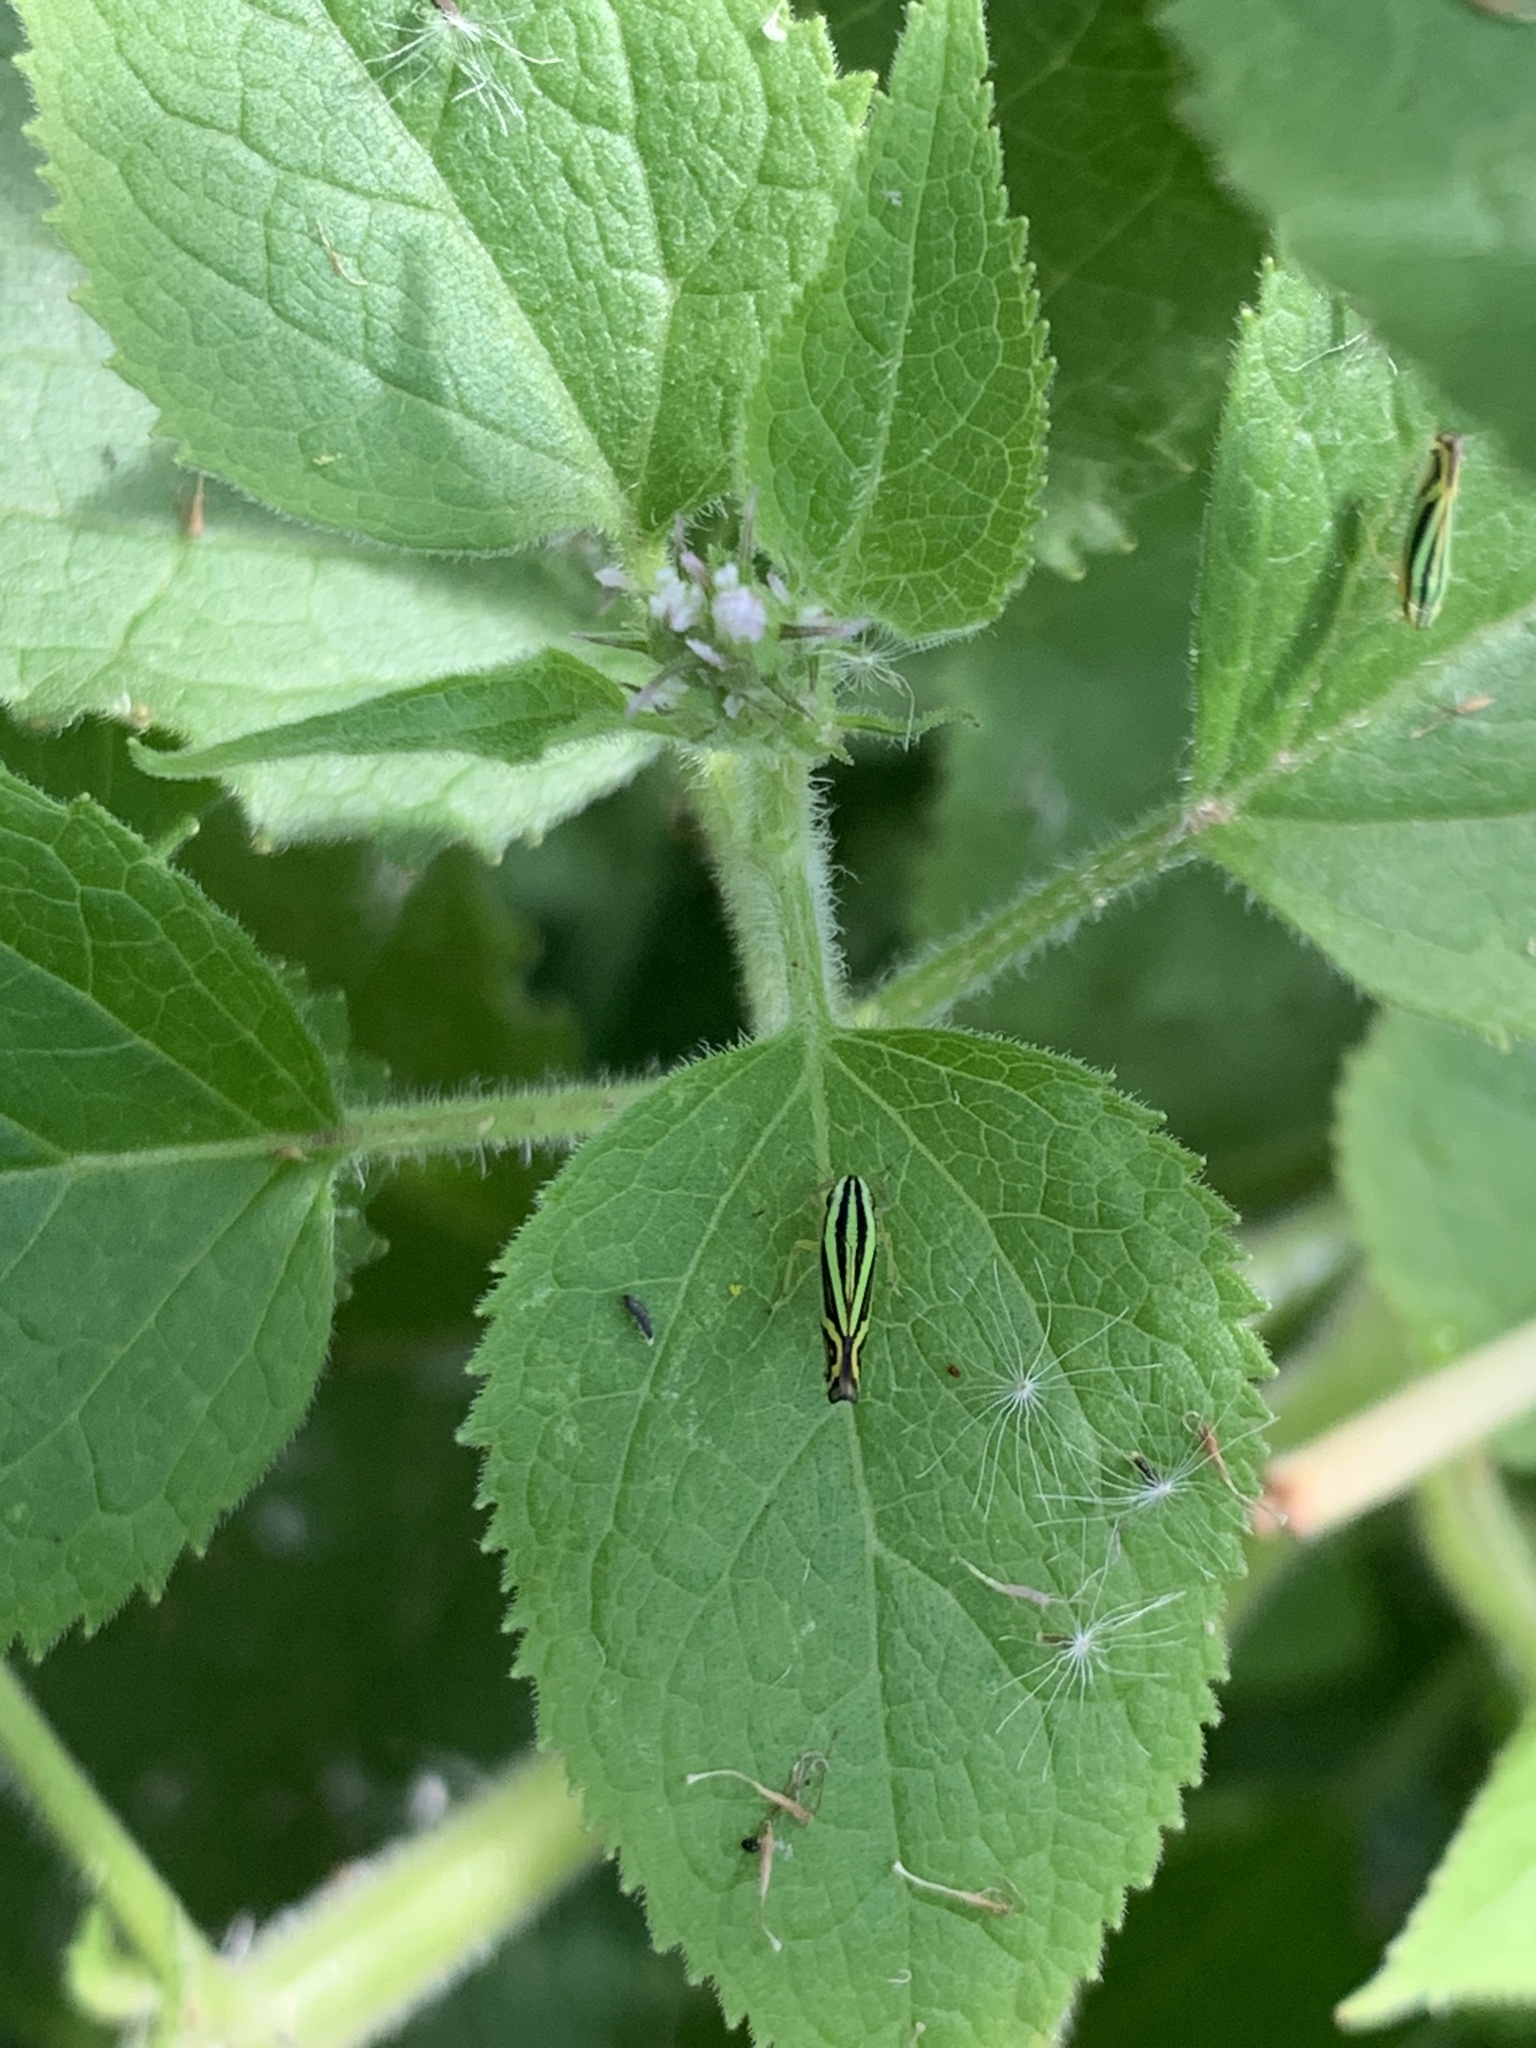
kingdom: Animalia
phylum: Arthropoda
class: Insecta
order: Hemiptera
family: Cicadellidae
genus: Sibovia
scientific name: Sibovia sagata
